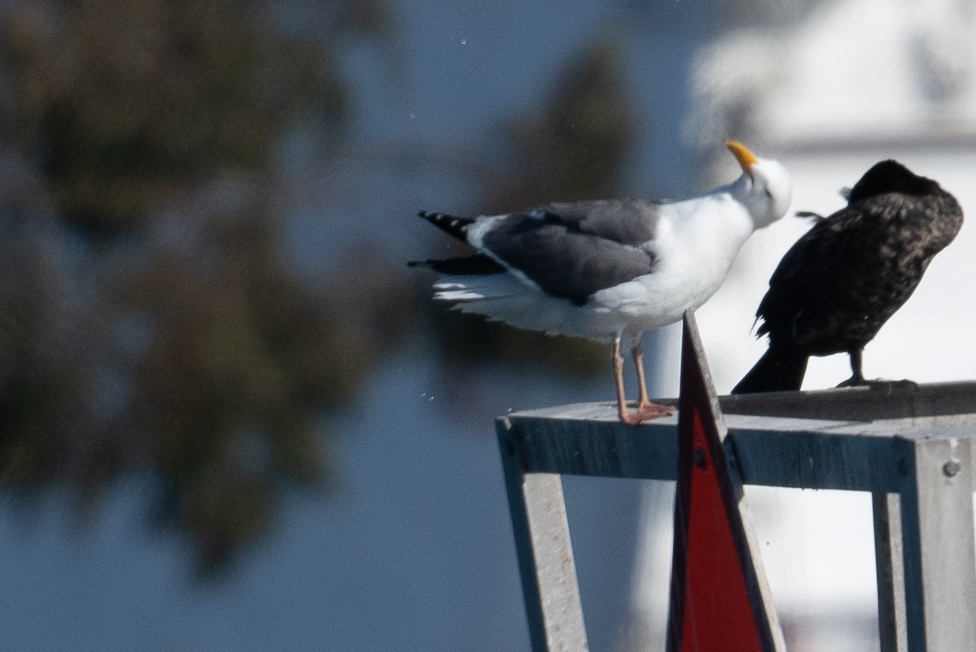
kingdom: Animalia
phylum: Chordata
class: Aves
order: Charadriiformes
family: Laridae
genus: Larus
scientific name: Larus occidentalis
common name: Western gull
